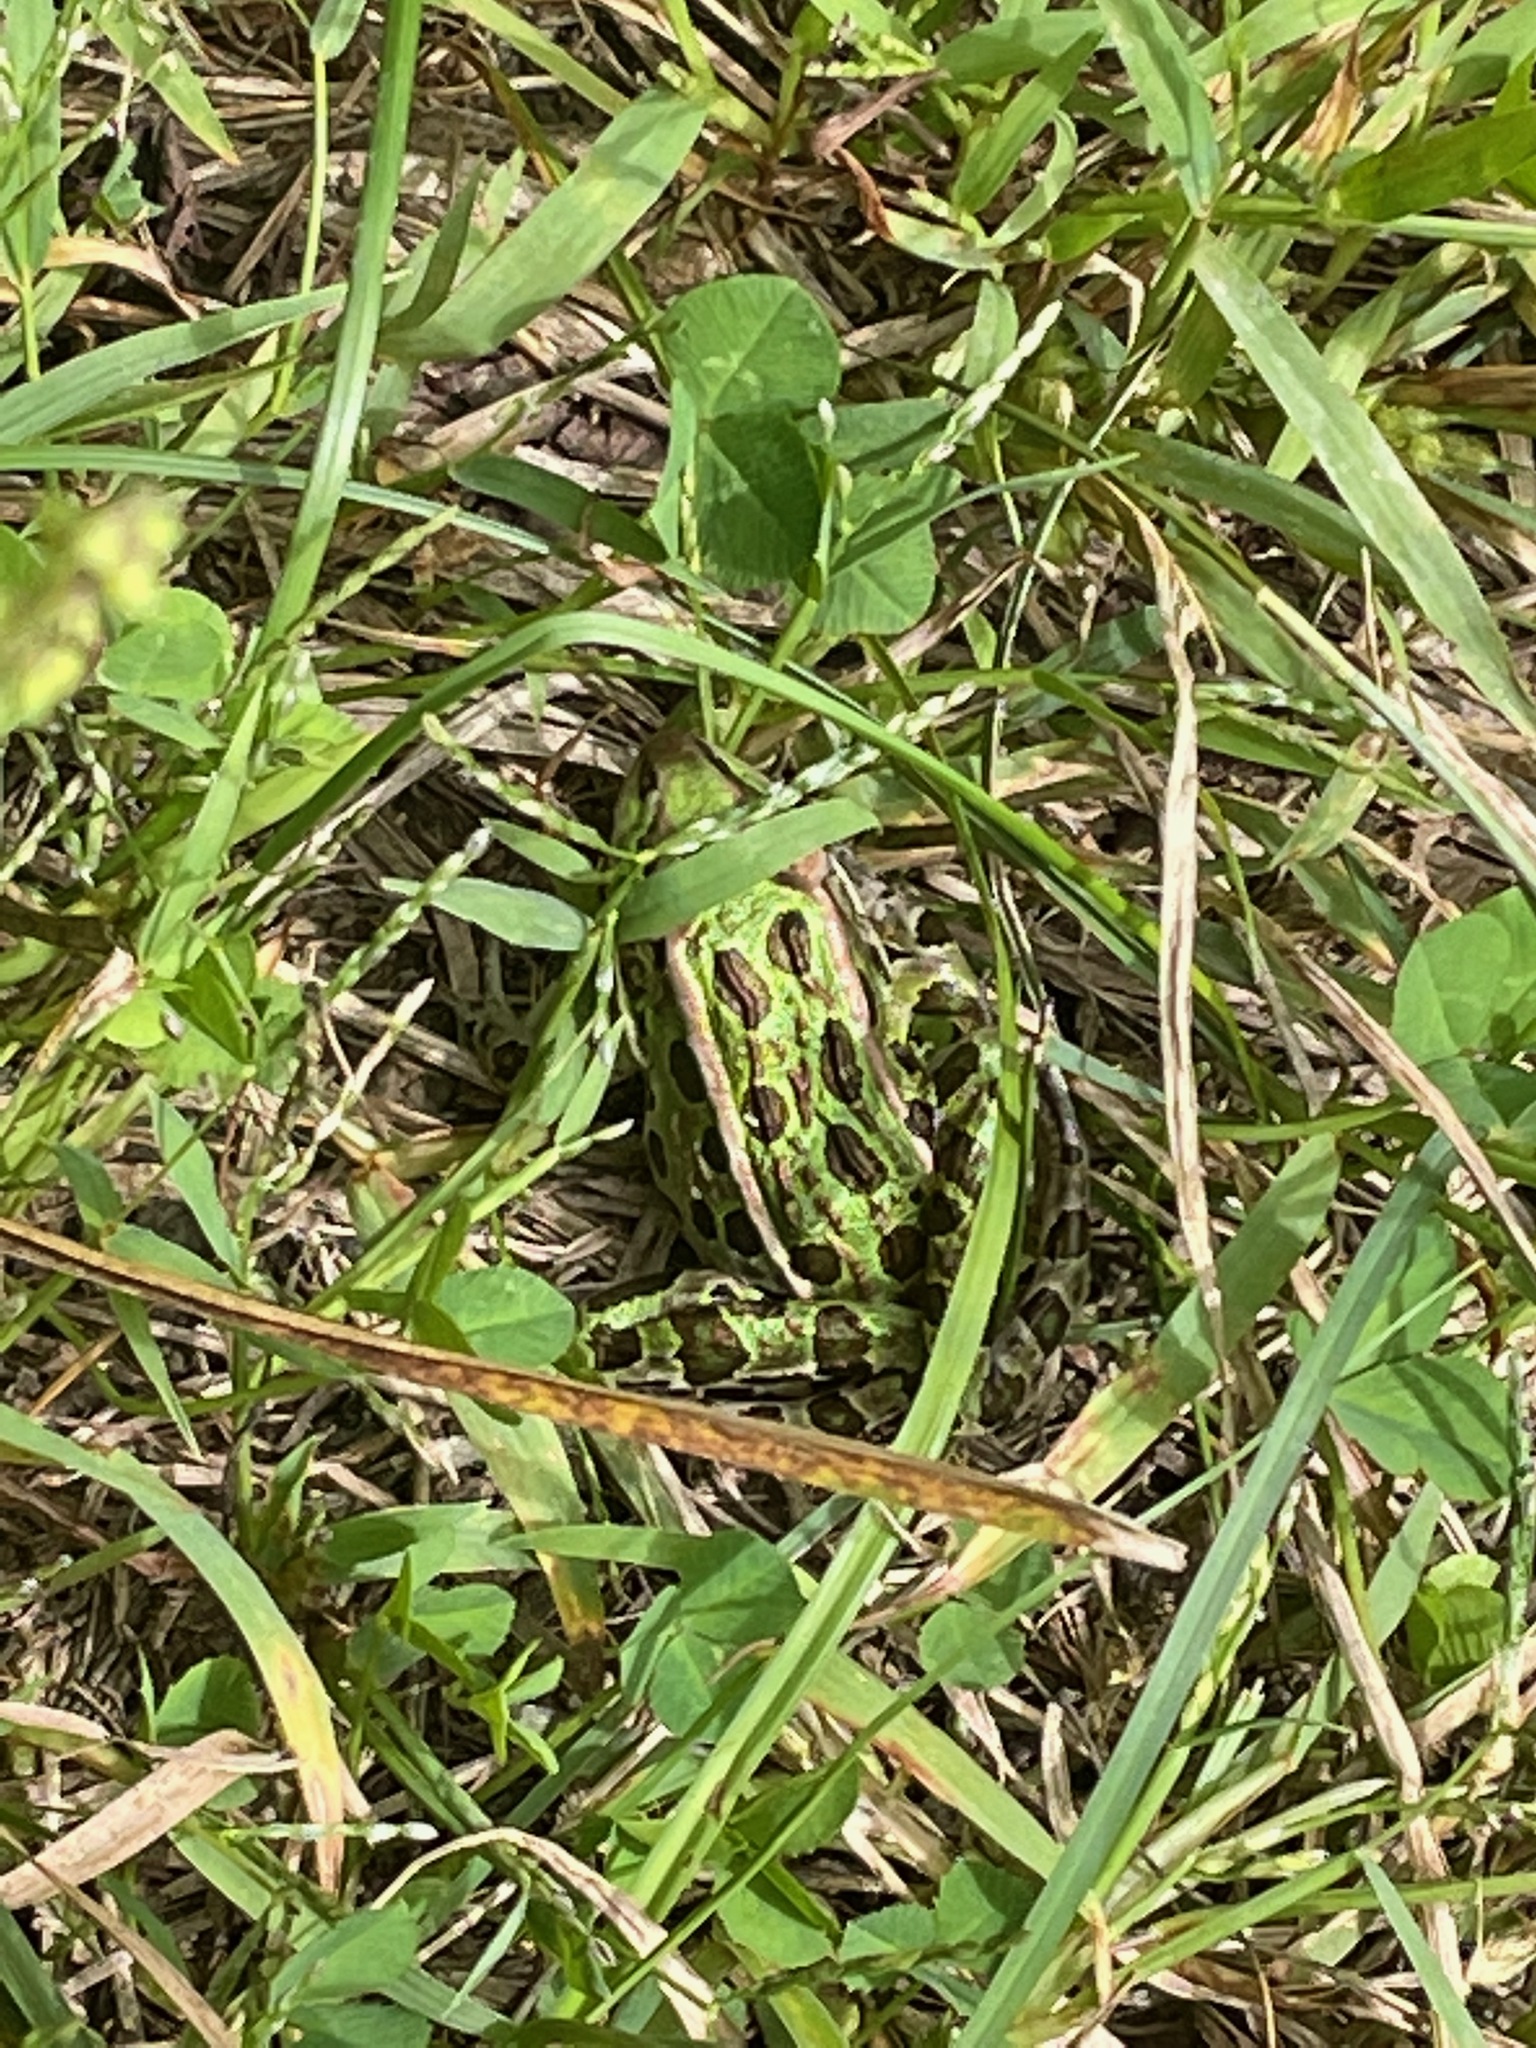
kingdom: Animalia
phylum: Chordata
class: Amphibia
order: Anura
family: Ranidae
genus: Lithobates
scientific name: Lithobates pipiens
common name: Northern leopard frog
